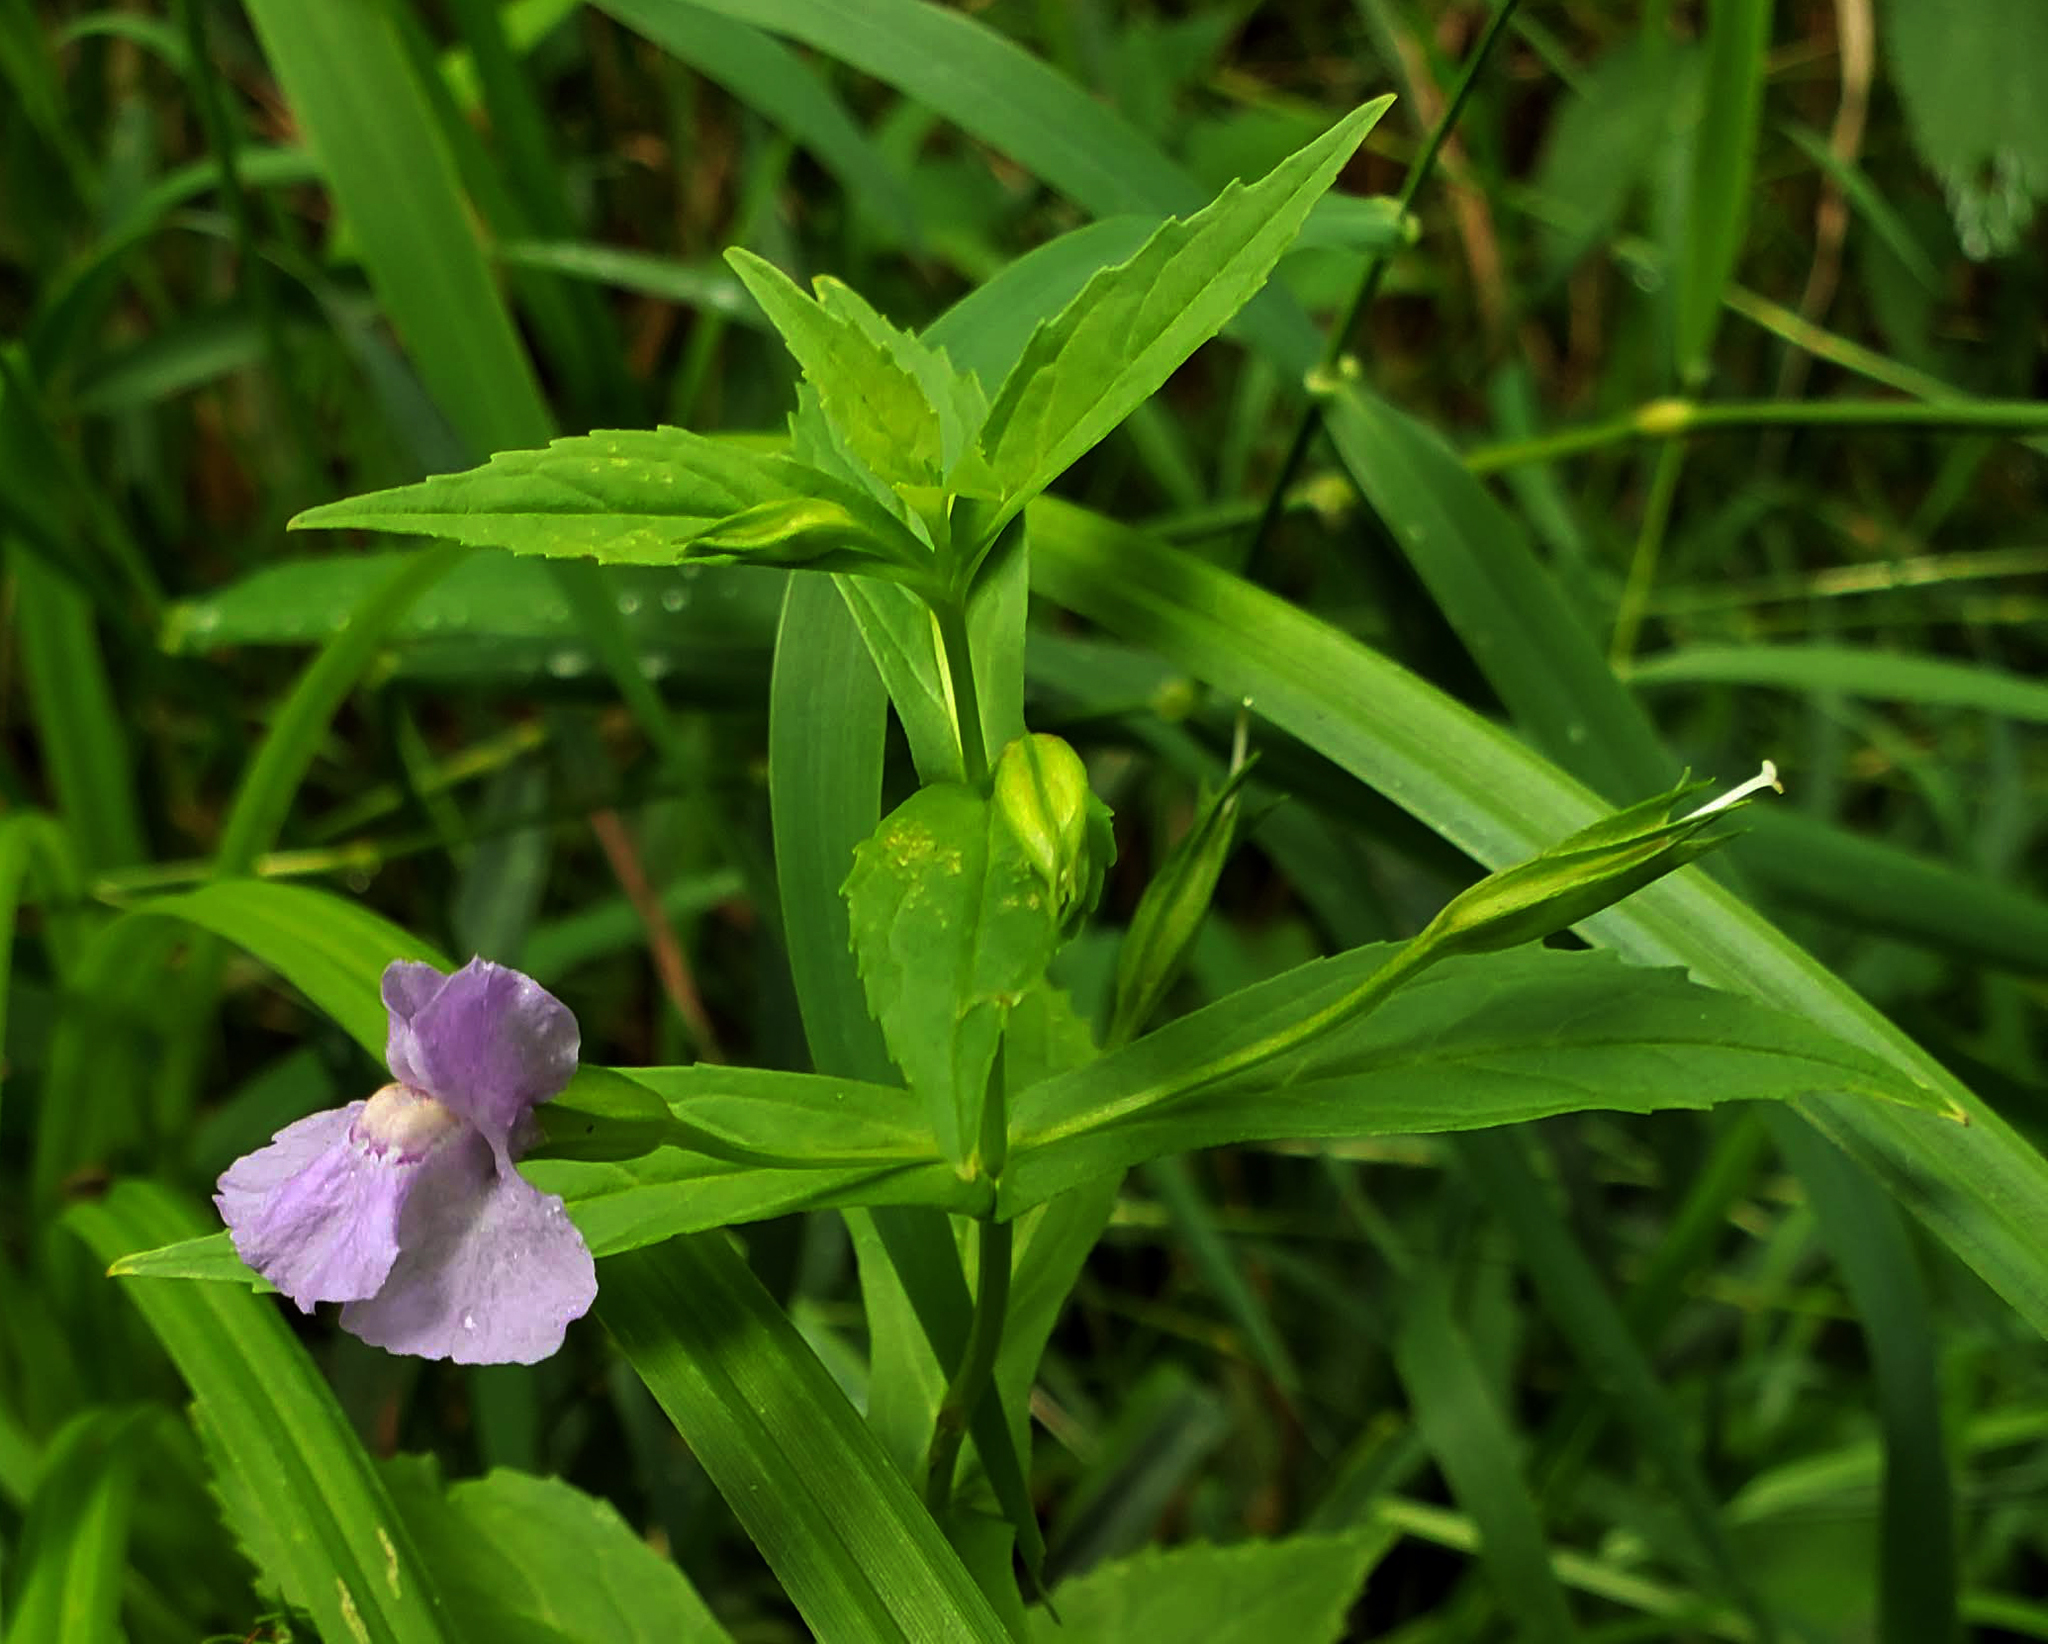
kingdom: Plantae
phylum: Tracheophyta
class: Magnoliopsida
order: Lamiales
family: Phrymaceae
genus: Mimulus
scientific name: Mimulus ringens
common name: Allegheny monkeyflower
